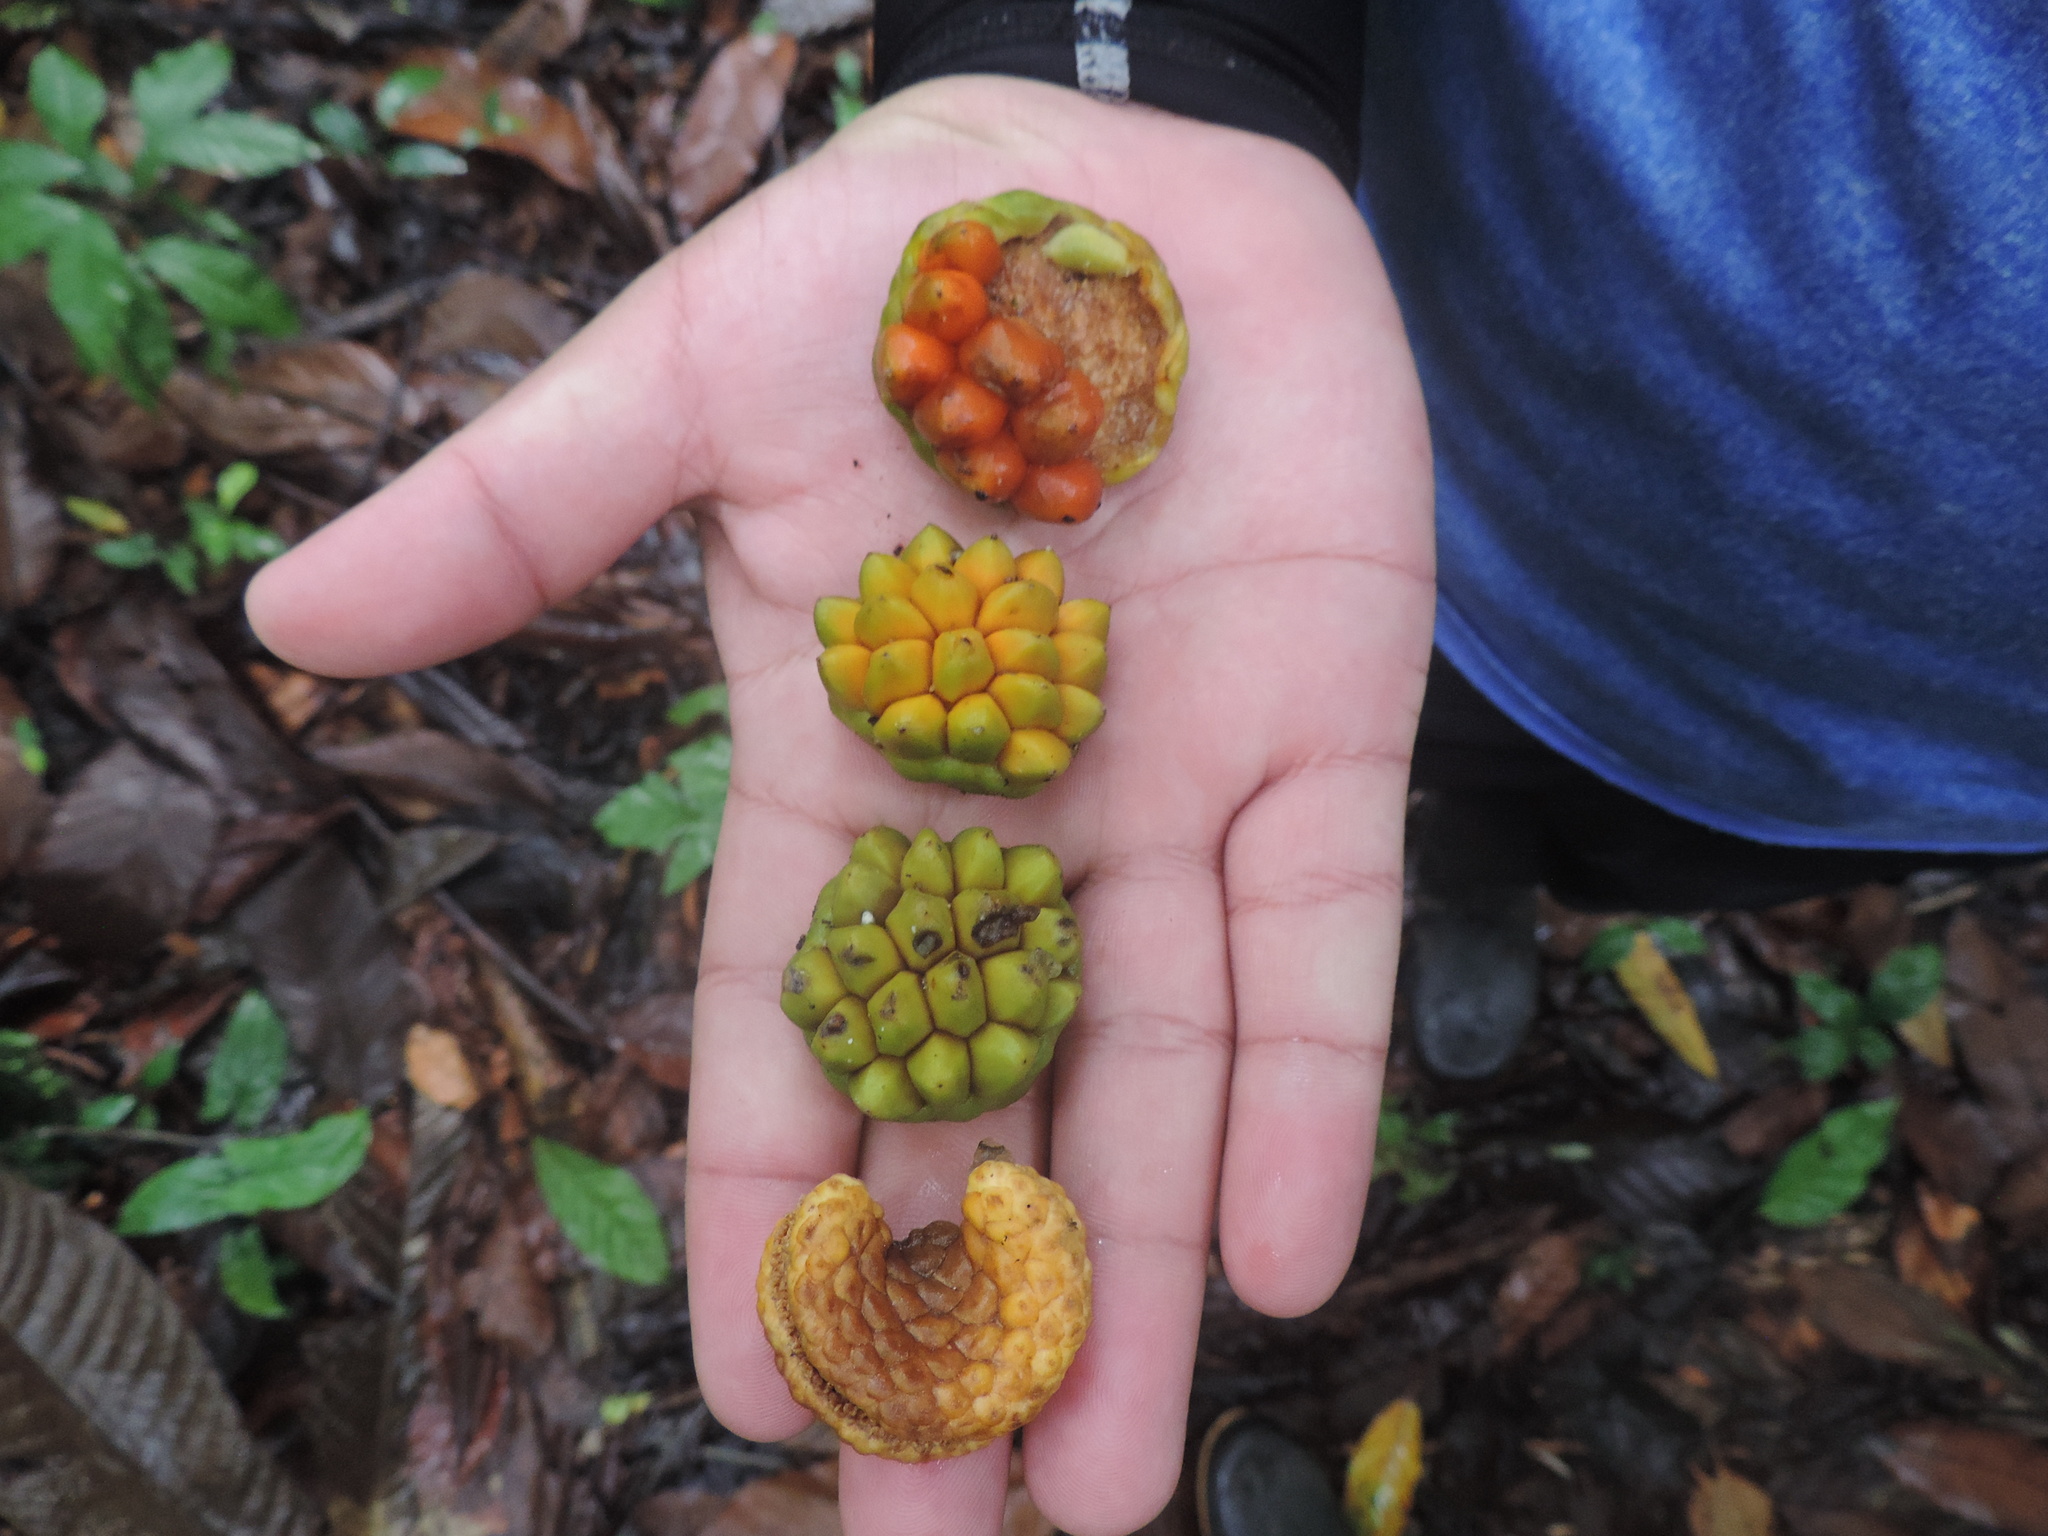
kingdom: Plantae
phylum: Tracheophyta
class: Magnoliopsida
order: Rosales
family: Moraceae
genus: Castilla
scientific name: Castilla tunu
